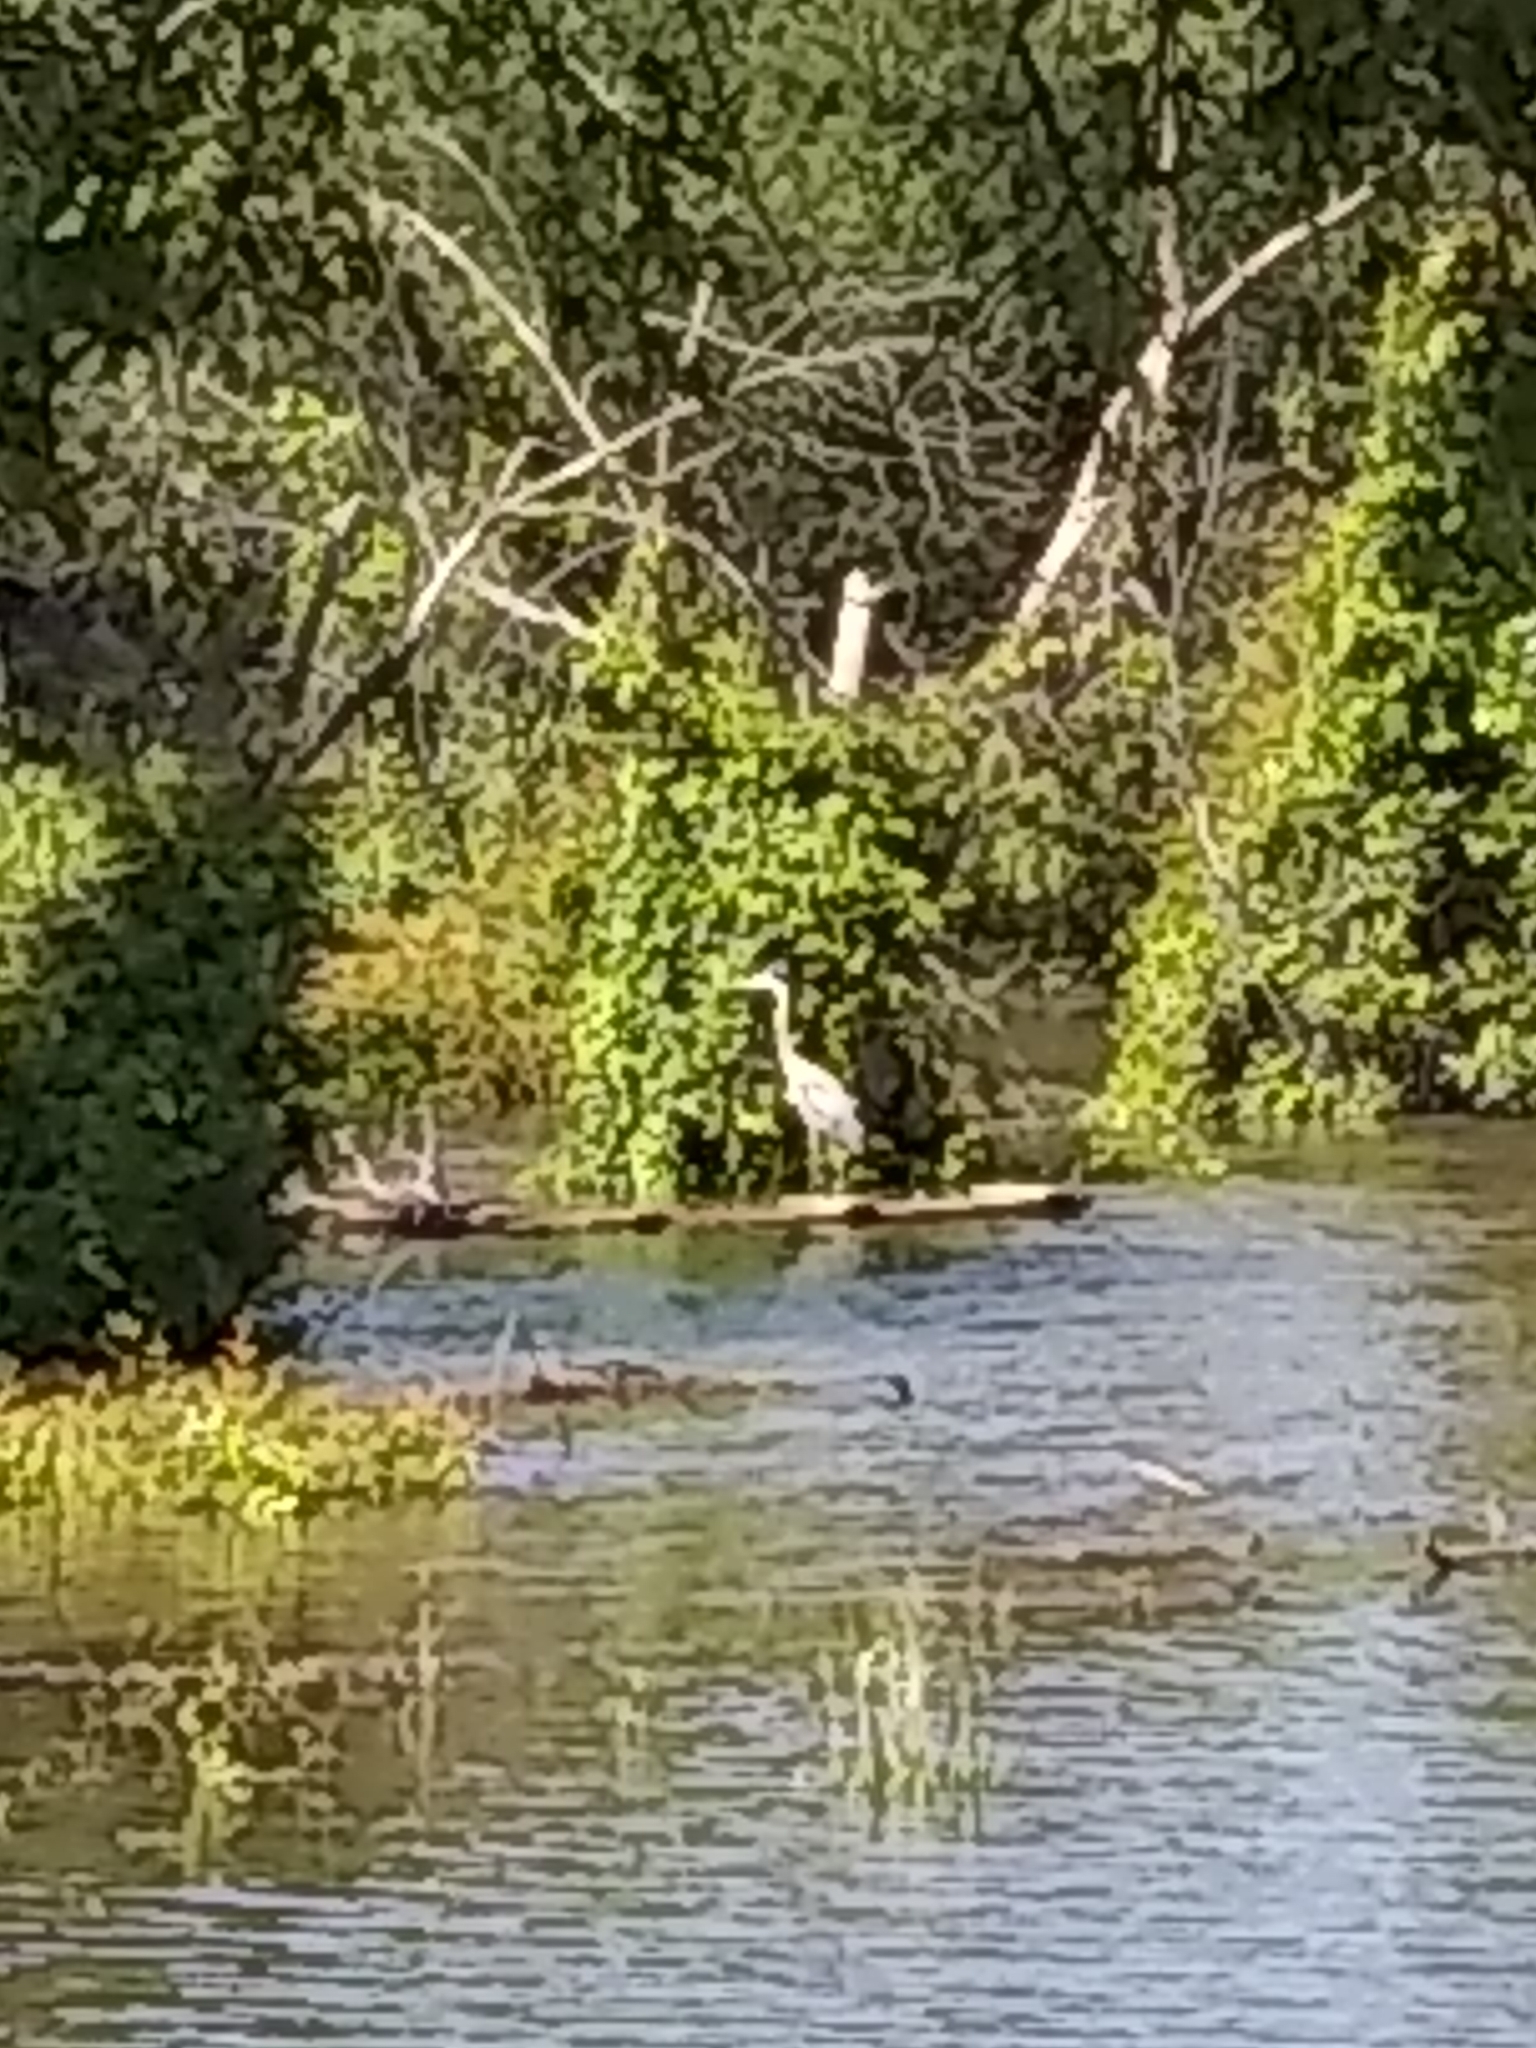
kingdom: Animalia
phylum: Chordata
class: Aves
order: Pelecaniformes
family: Ardeidae
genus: Ardea
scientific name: Ardea herodias
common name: Great blue heron
